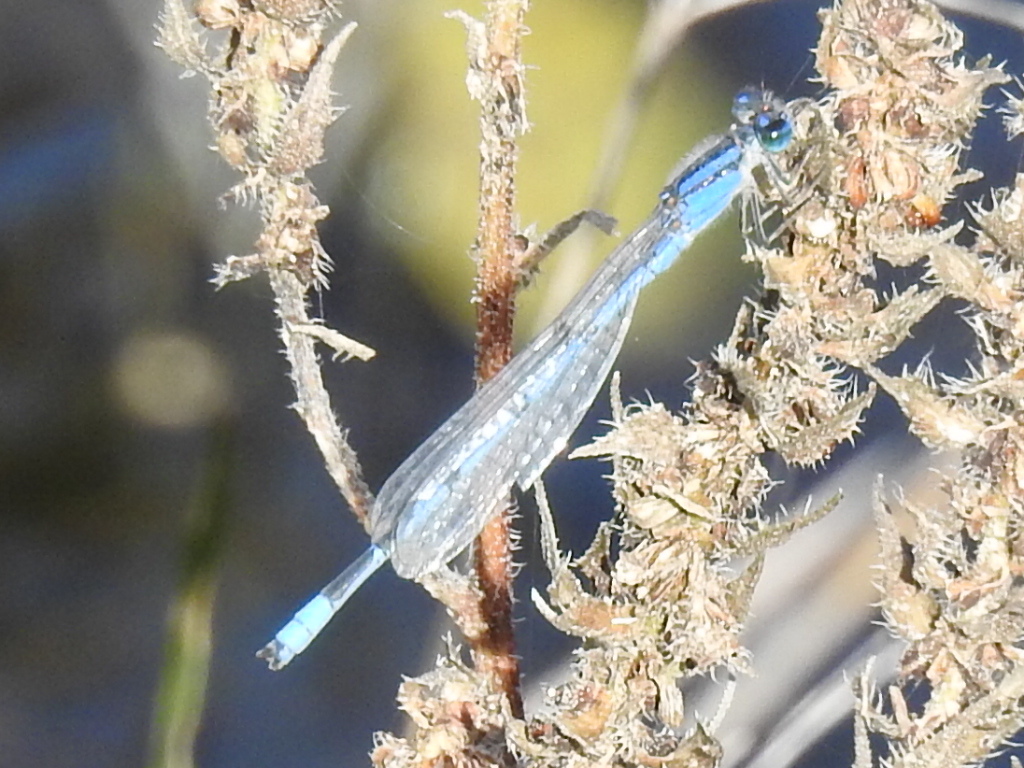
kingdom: Animalia
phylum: Arthropoda
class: Insecta
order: Odonata
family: Coenagrionidae
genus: Enallagma
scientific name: Enallagma civile
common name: Damselfly
